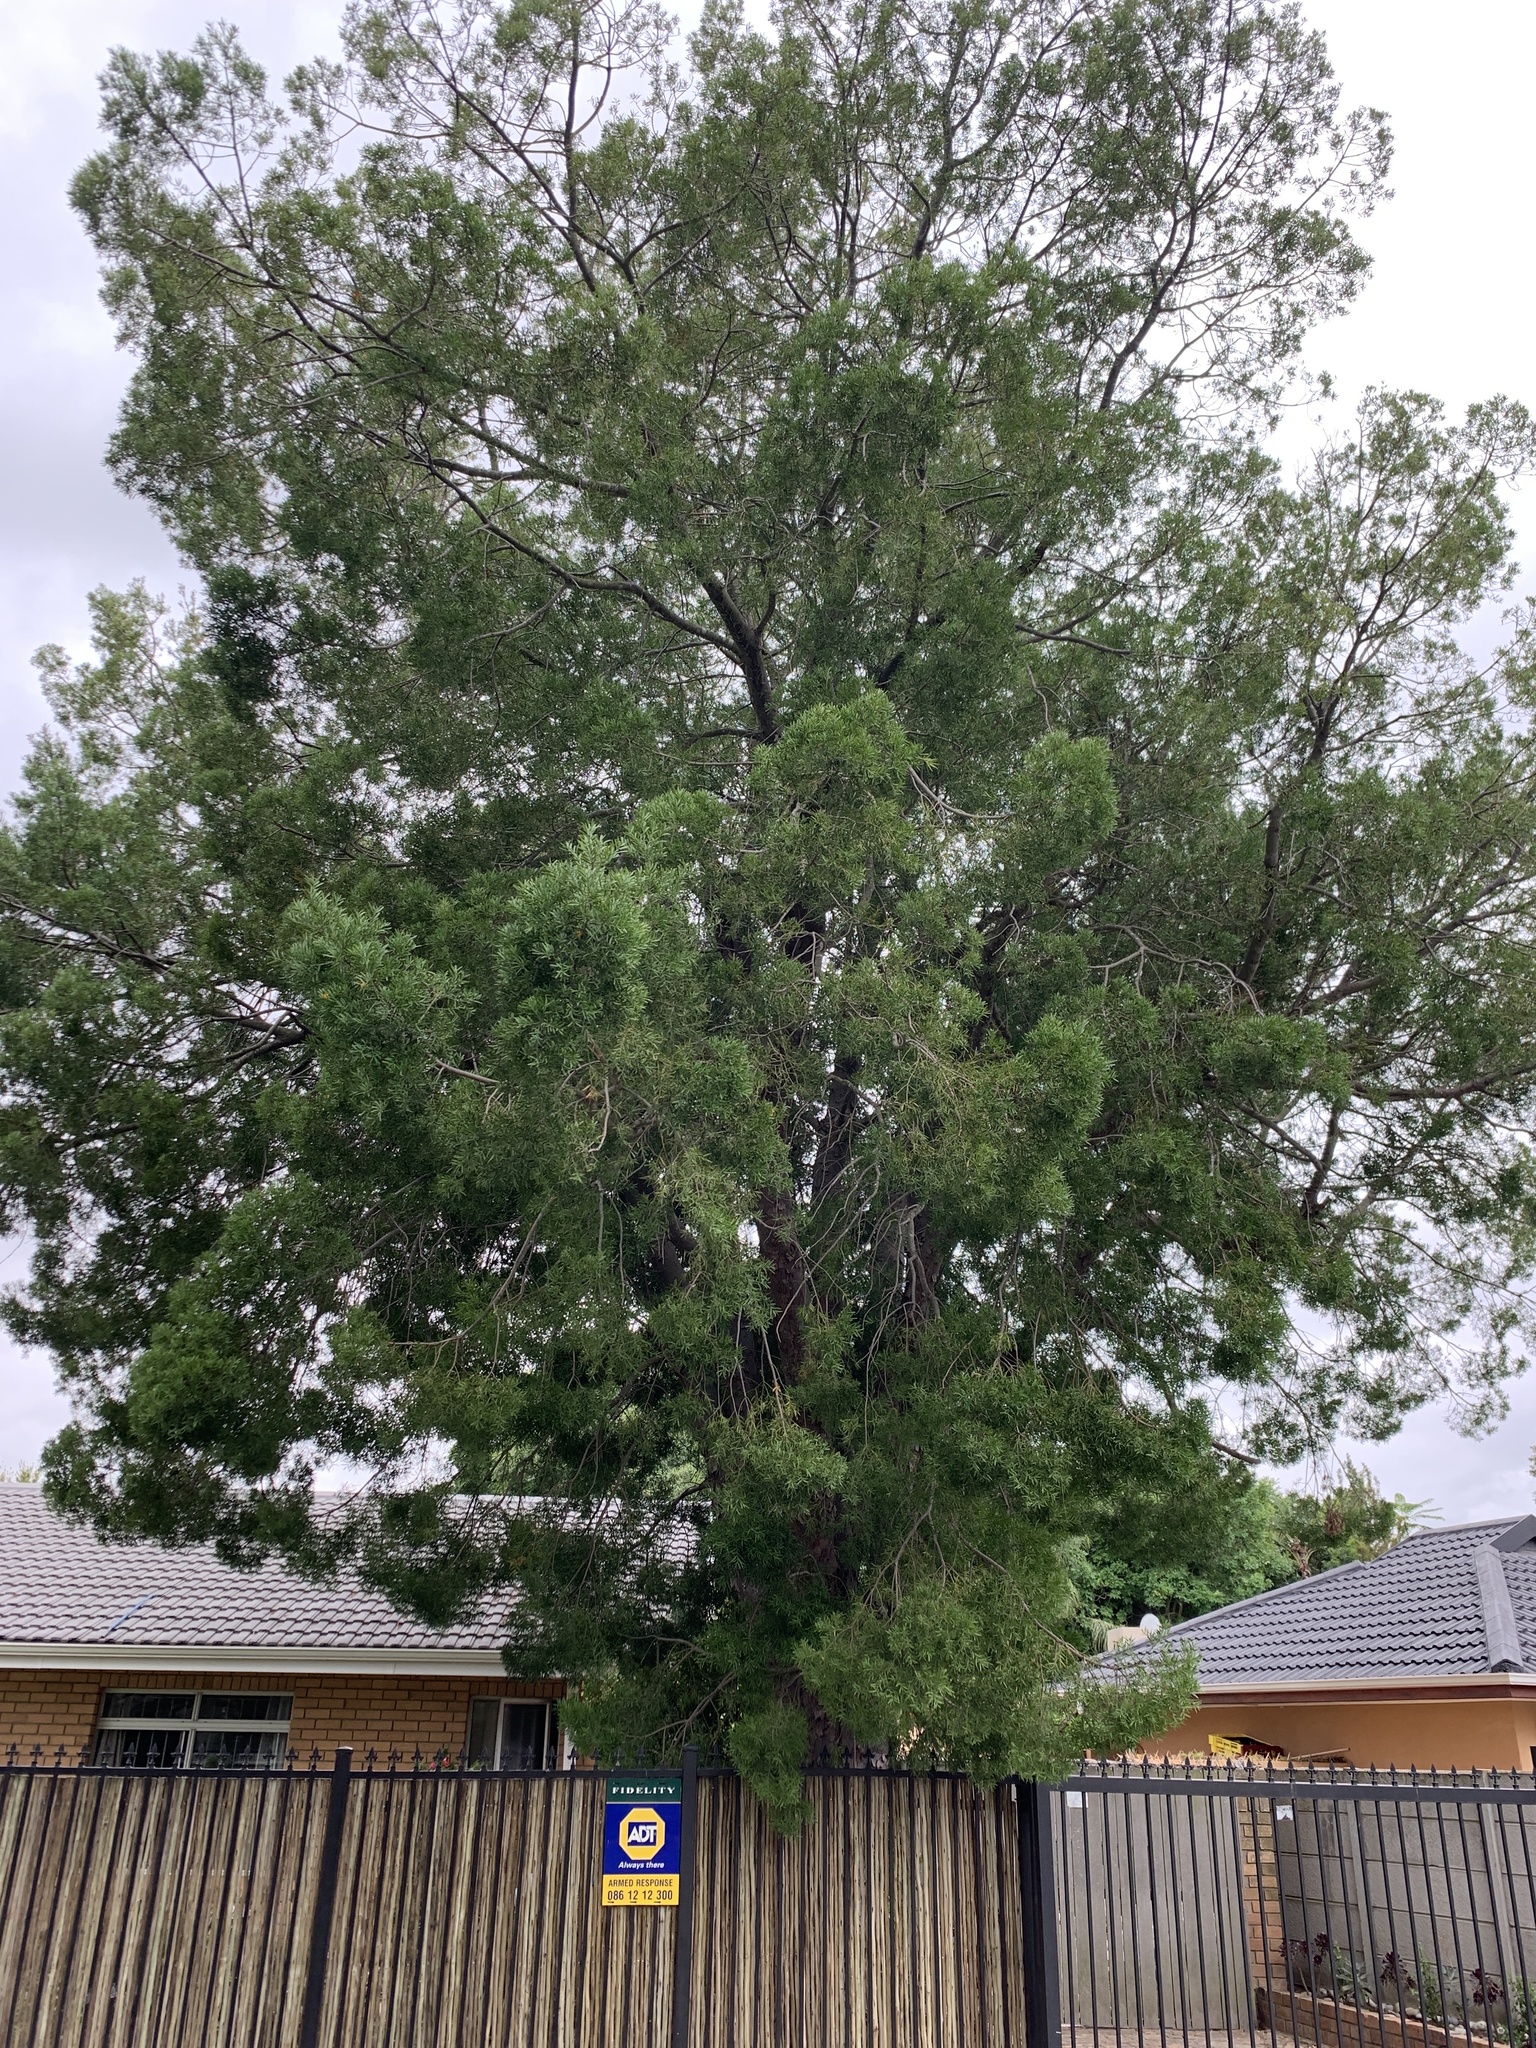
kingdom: Plantae
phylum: Tracheophyta
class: Pinopsida
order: Pinales
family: Podocarpaceae
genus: Afrocarpus
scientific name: Afrocarpus falcatus
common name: Bastard yellowwood
